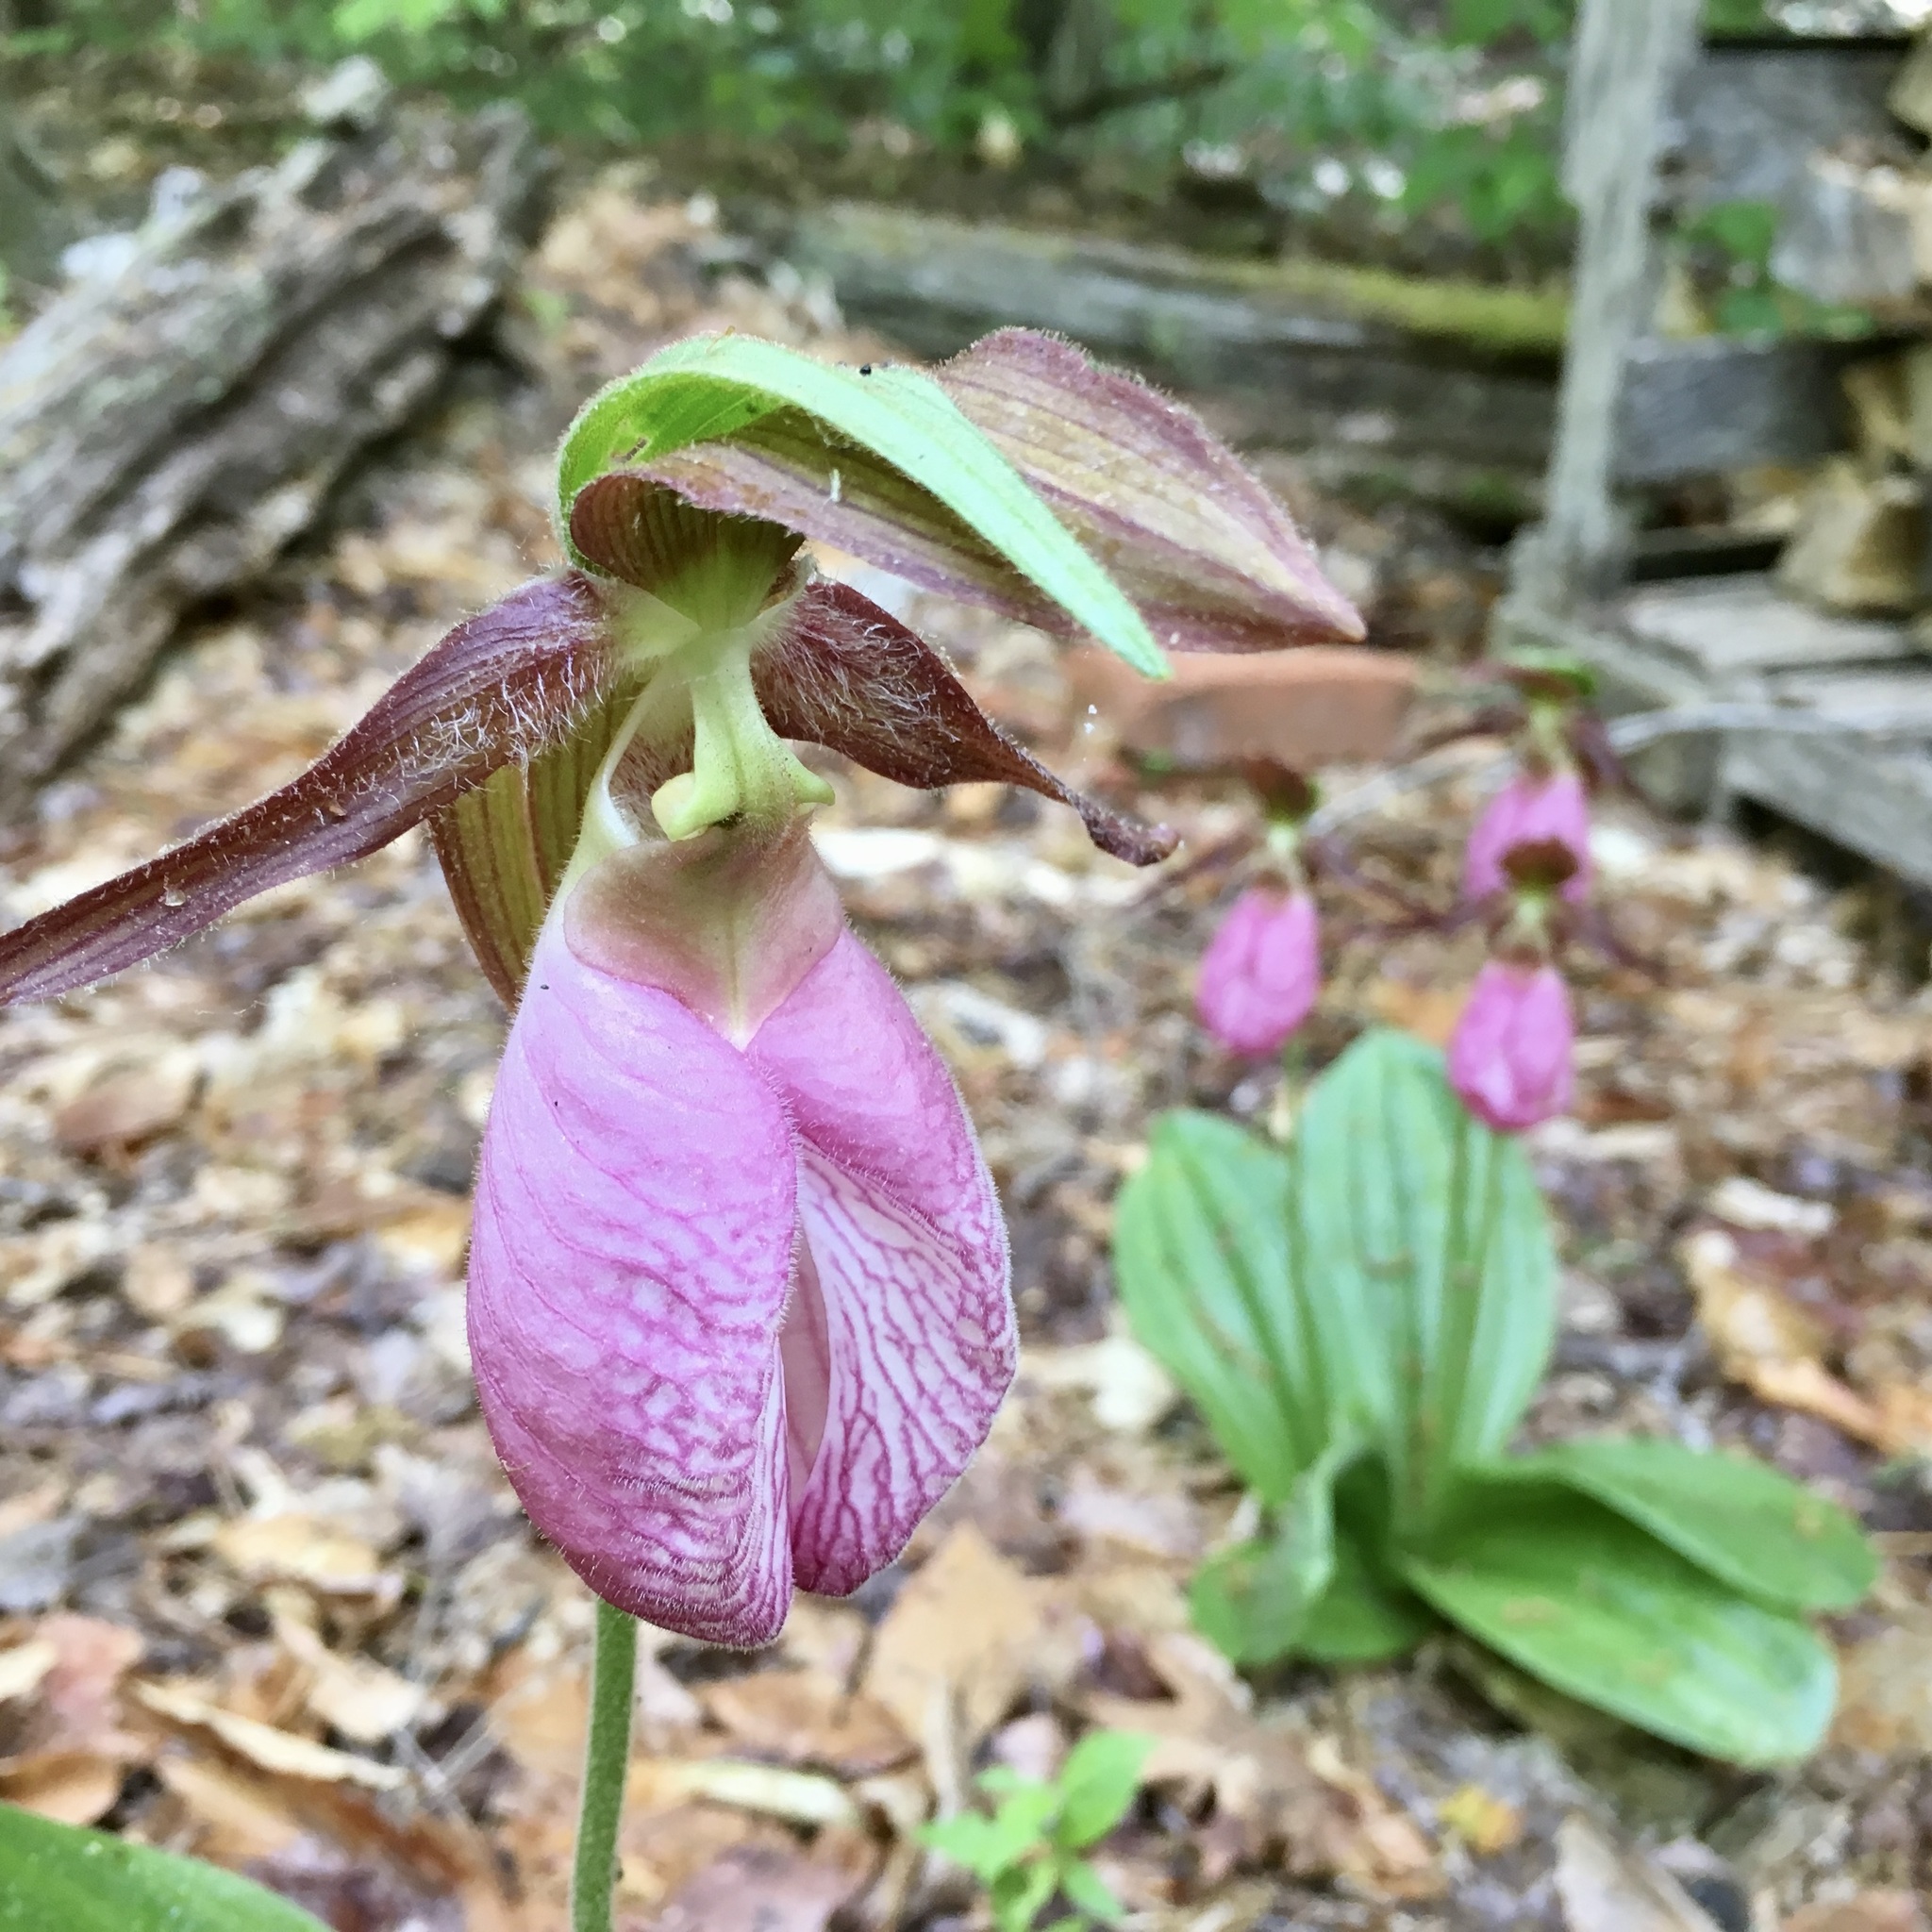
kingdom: Plantae
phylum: Tracheophyta
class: Liliopsida
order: Asparagales
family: Orchidaceae
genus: Cypripedium
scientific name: Cypripedium acaule
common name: Pink lady's-slipper
